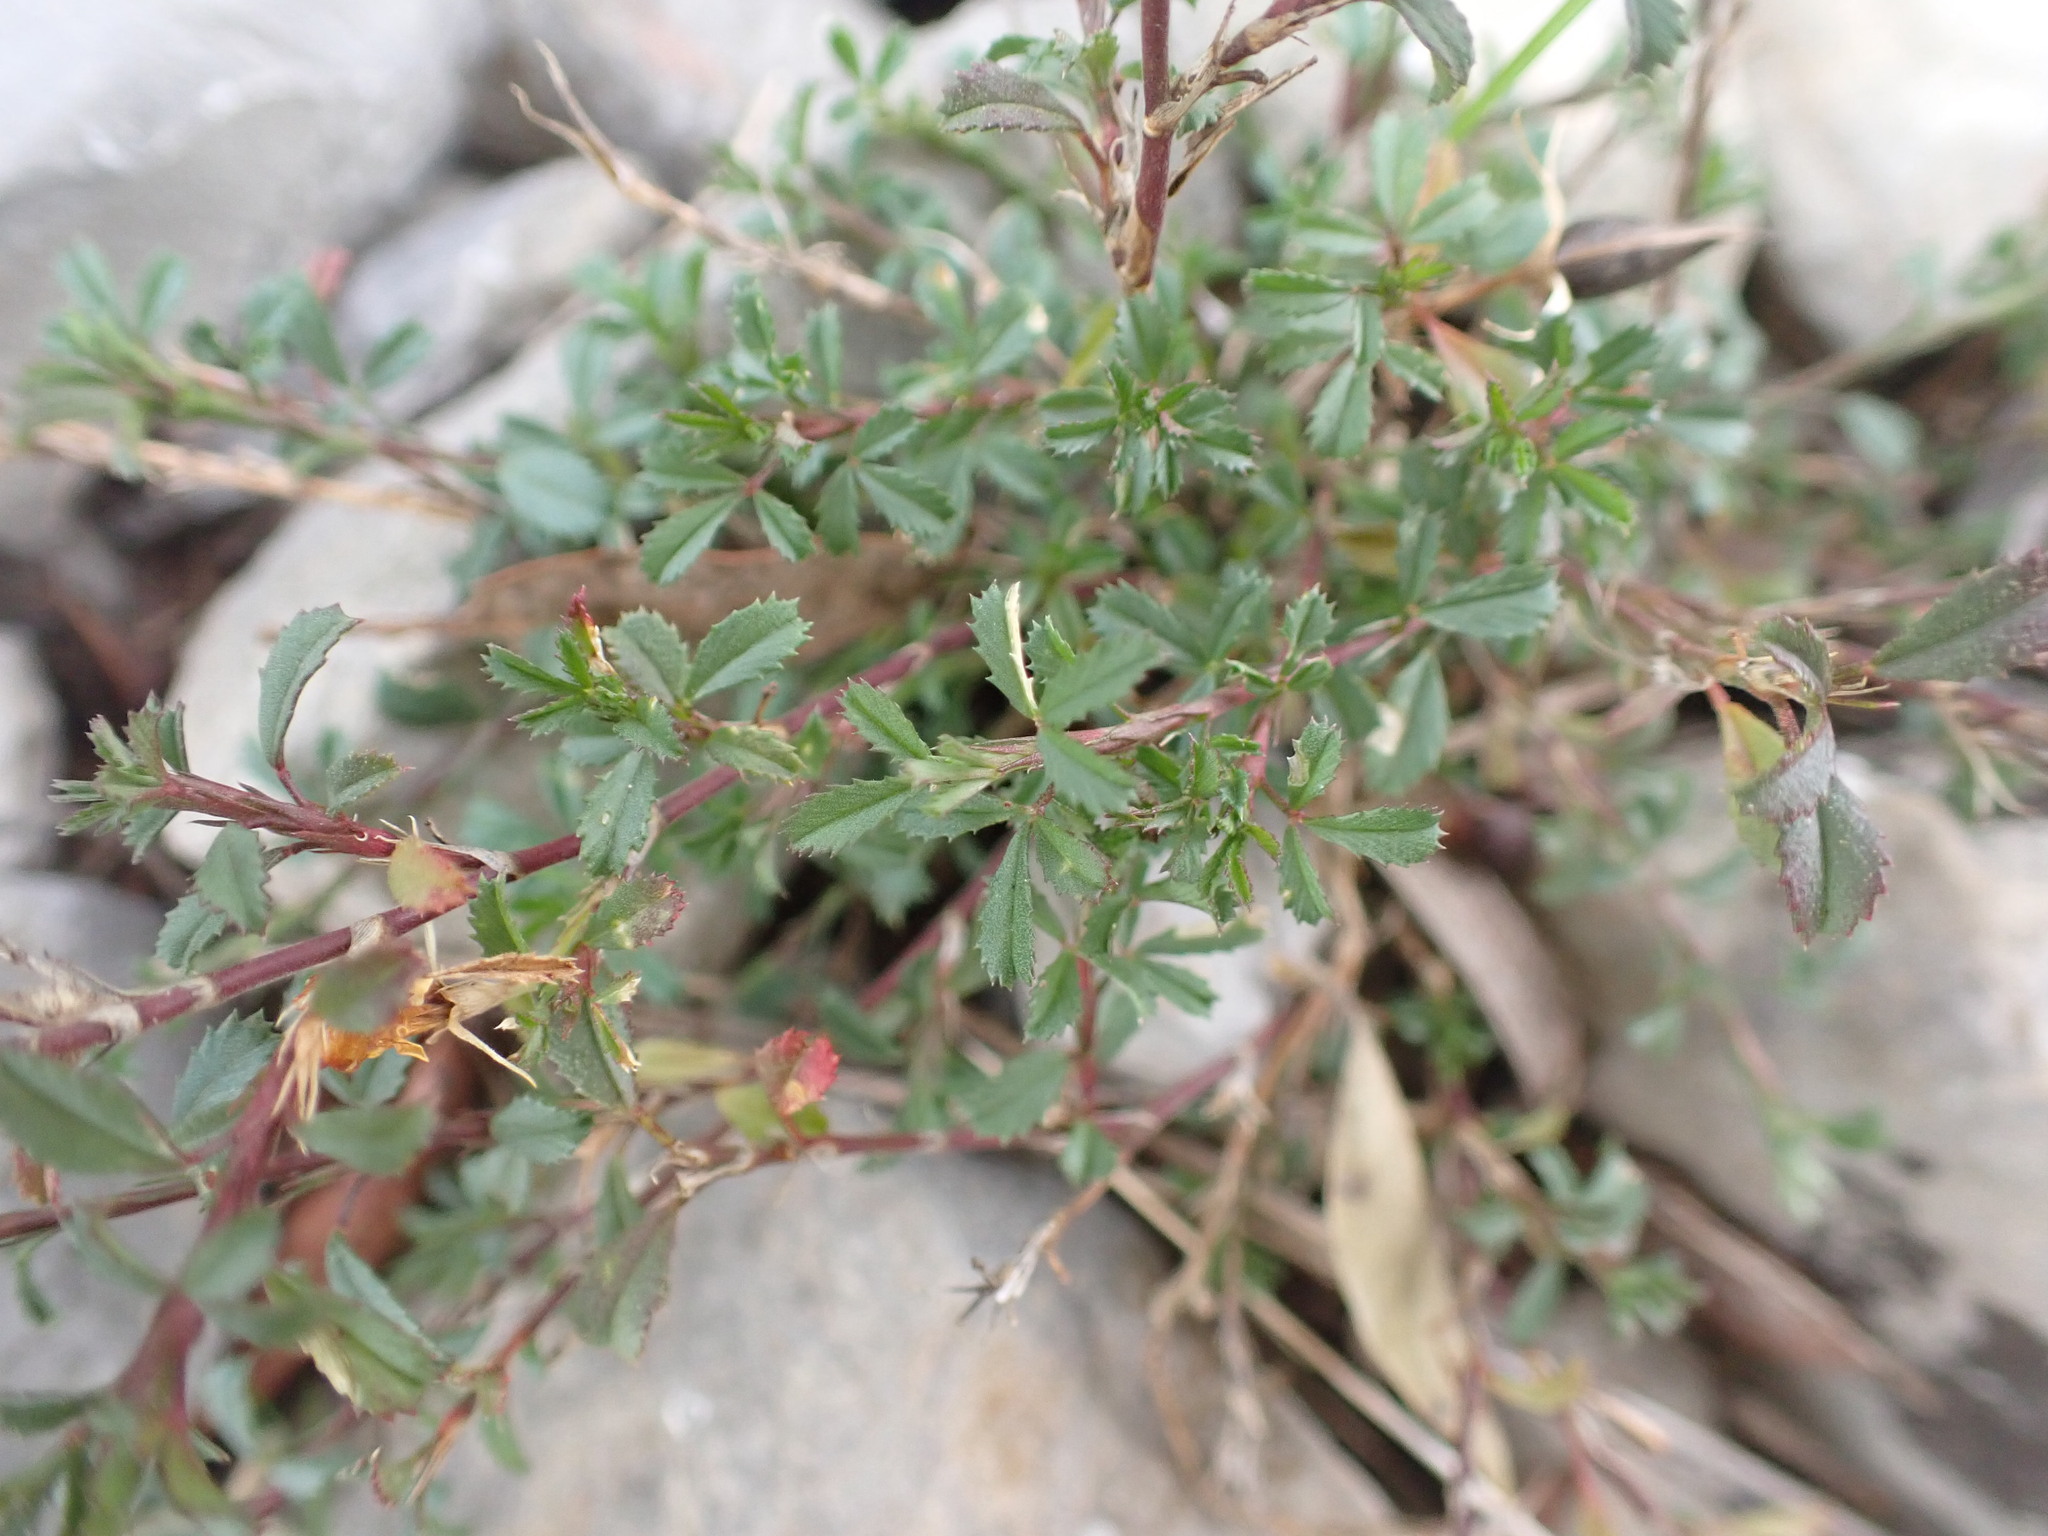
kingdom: Plantae
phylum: Tracheophyta
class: Magnoliopsida
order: Fabales
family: Fabaceae
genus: Ononis
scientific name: Ononis minutissima
